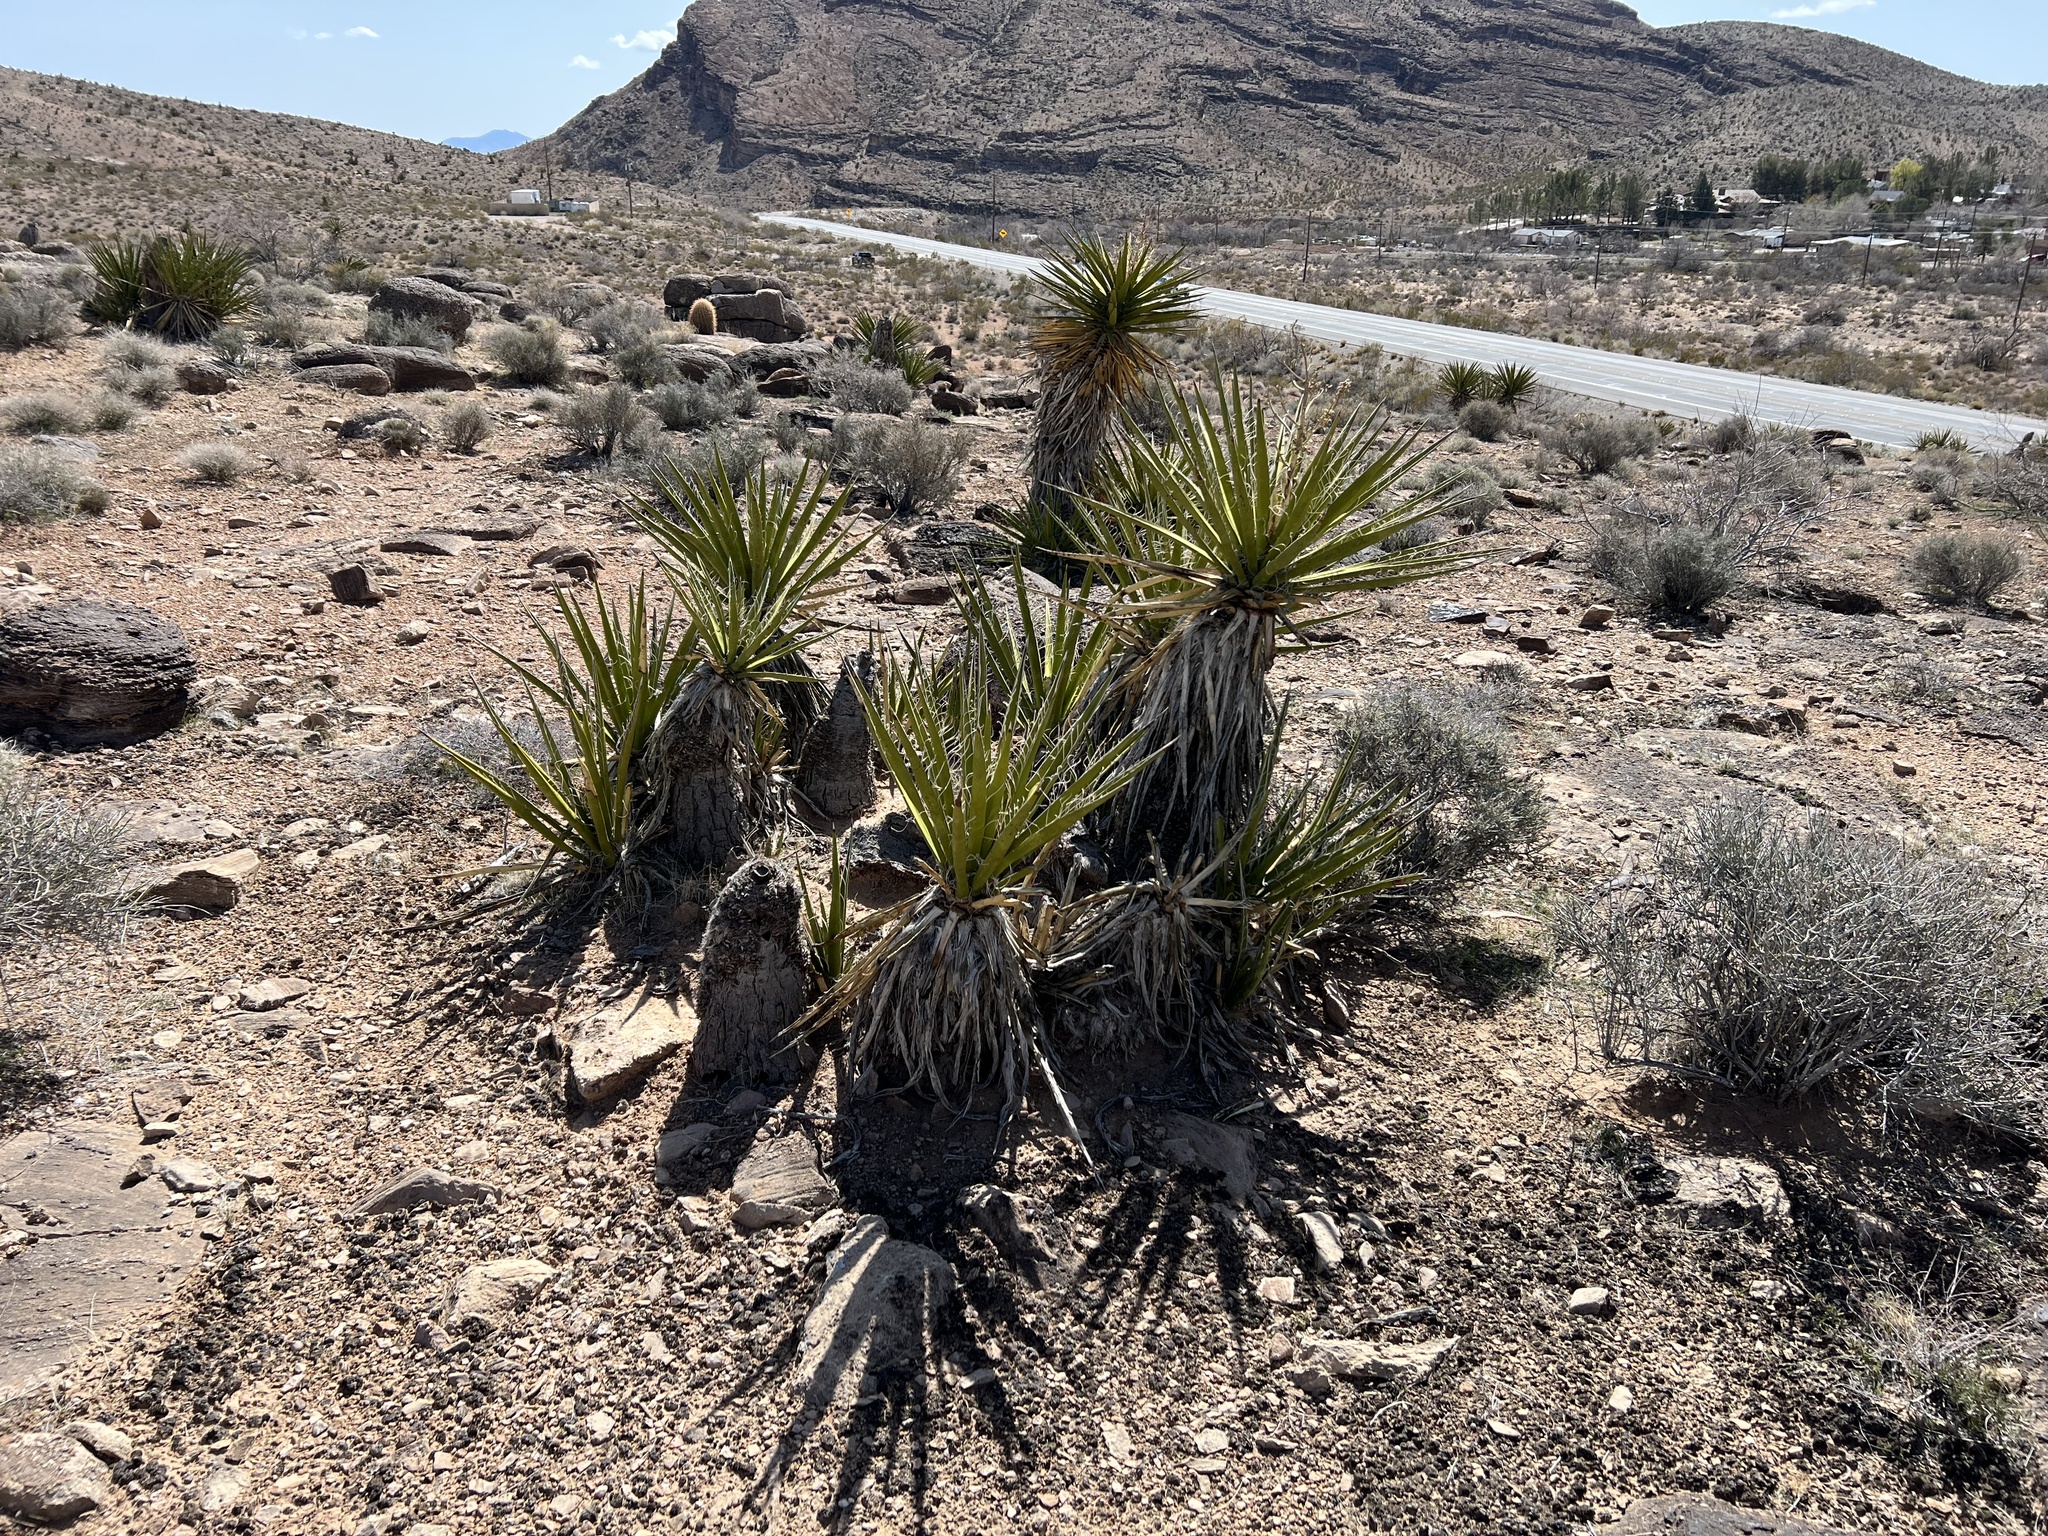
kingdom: Plantae
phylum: Tracheophyta
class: Liliopsida
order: Asparagales
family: Asparagaceae
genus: Yucca
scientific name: Yucca schidigera
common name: Mojave yucca
